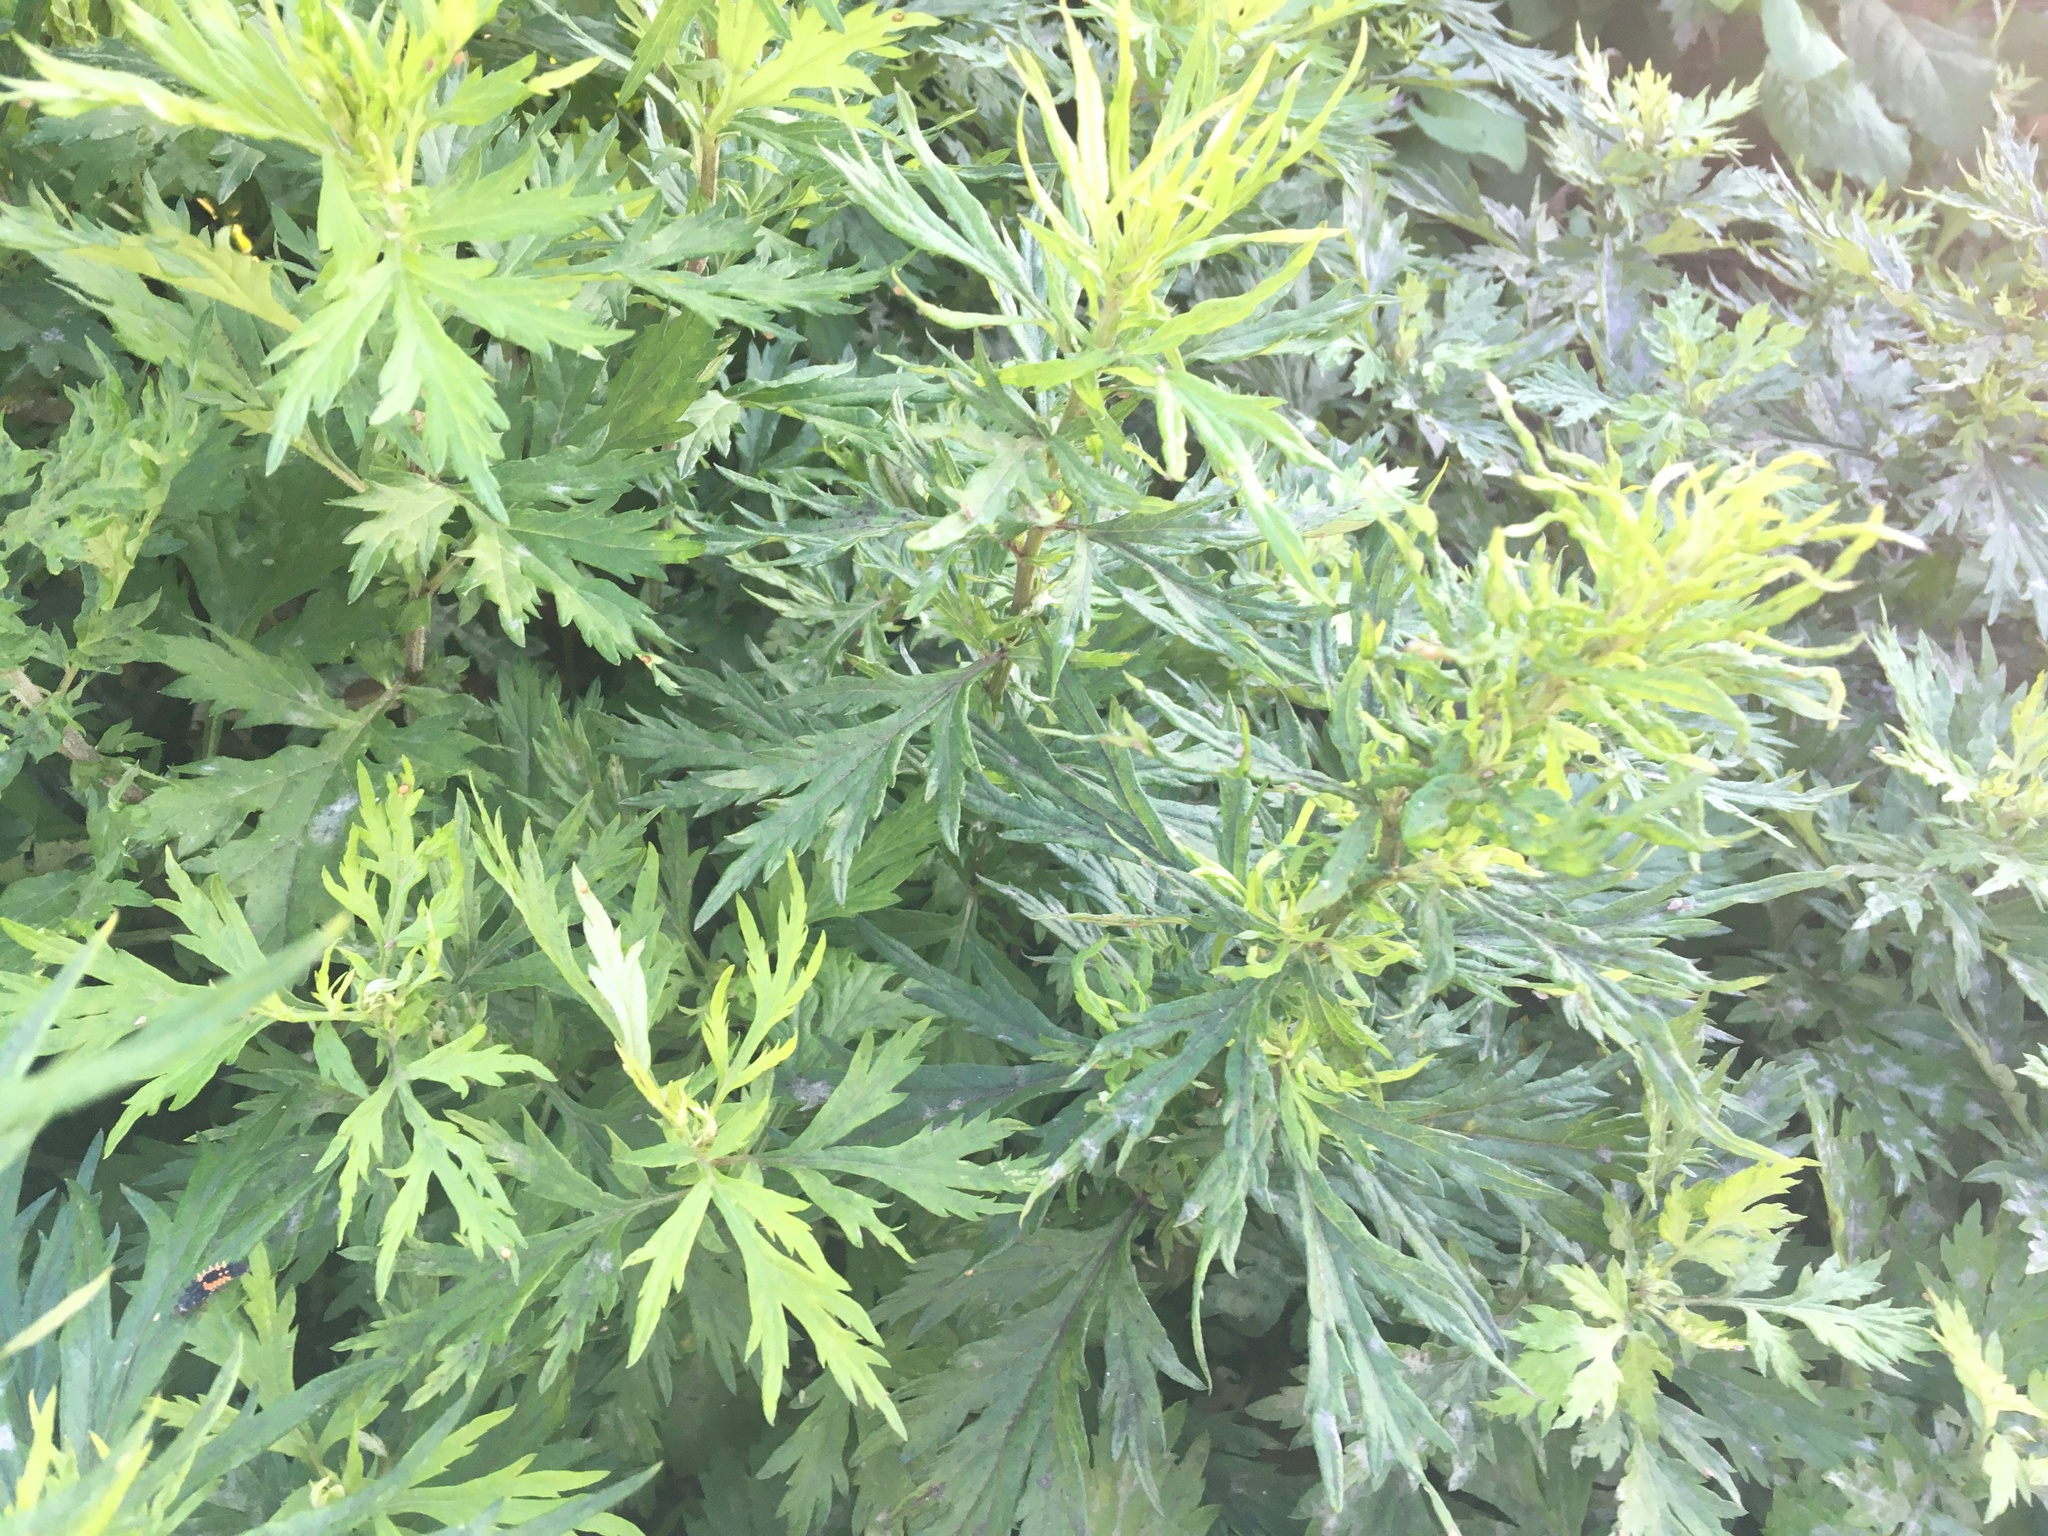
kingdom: Plantae
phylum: Tracheophyta
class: Magnoliopsida
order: Asterales
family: Asteraceae
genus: Artemisia
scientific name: Artemisia vulgaris
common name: Mugwort
